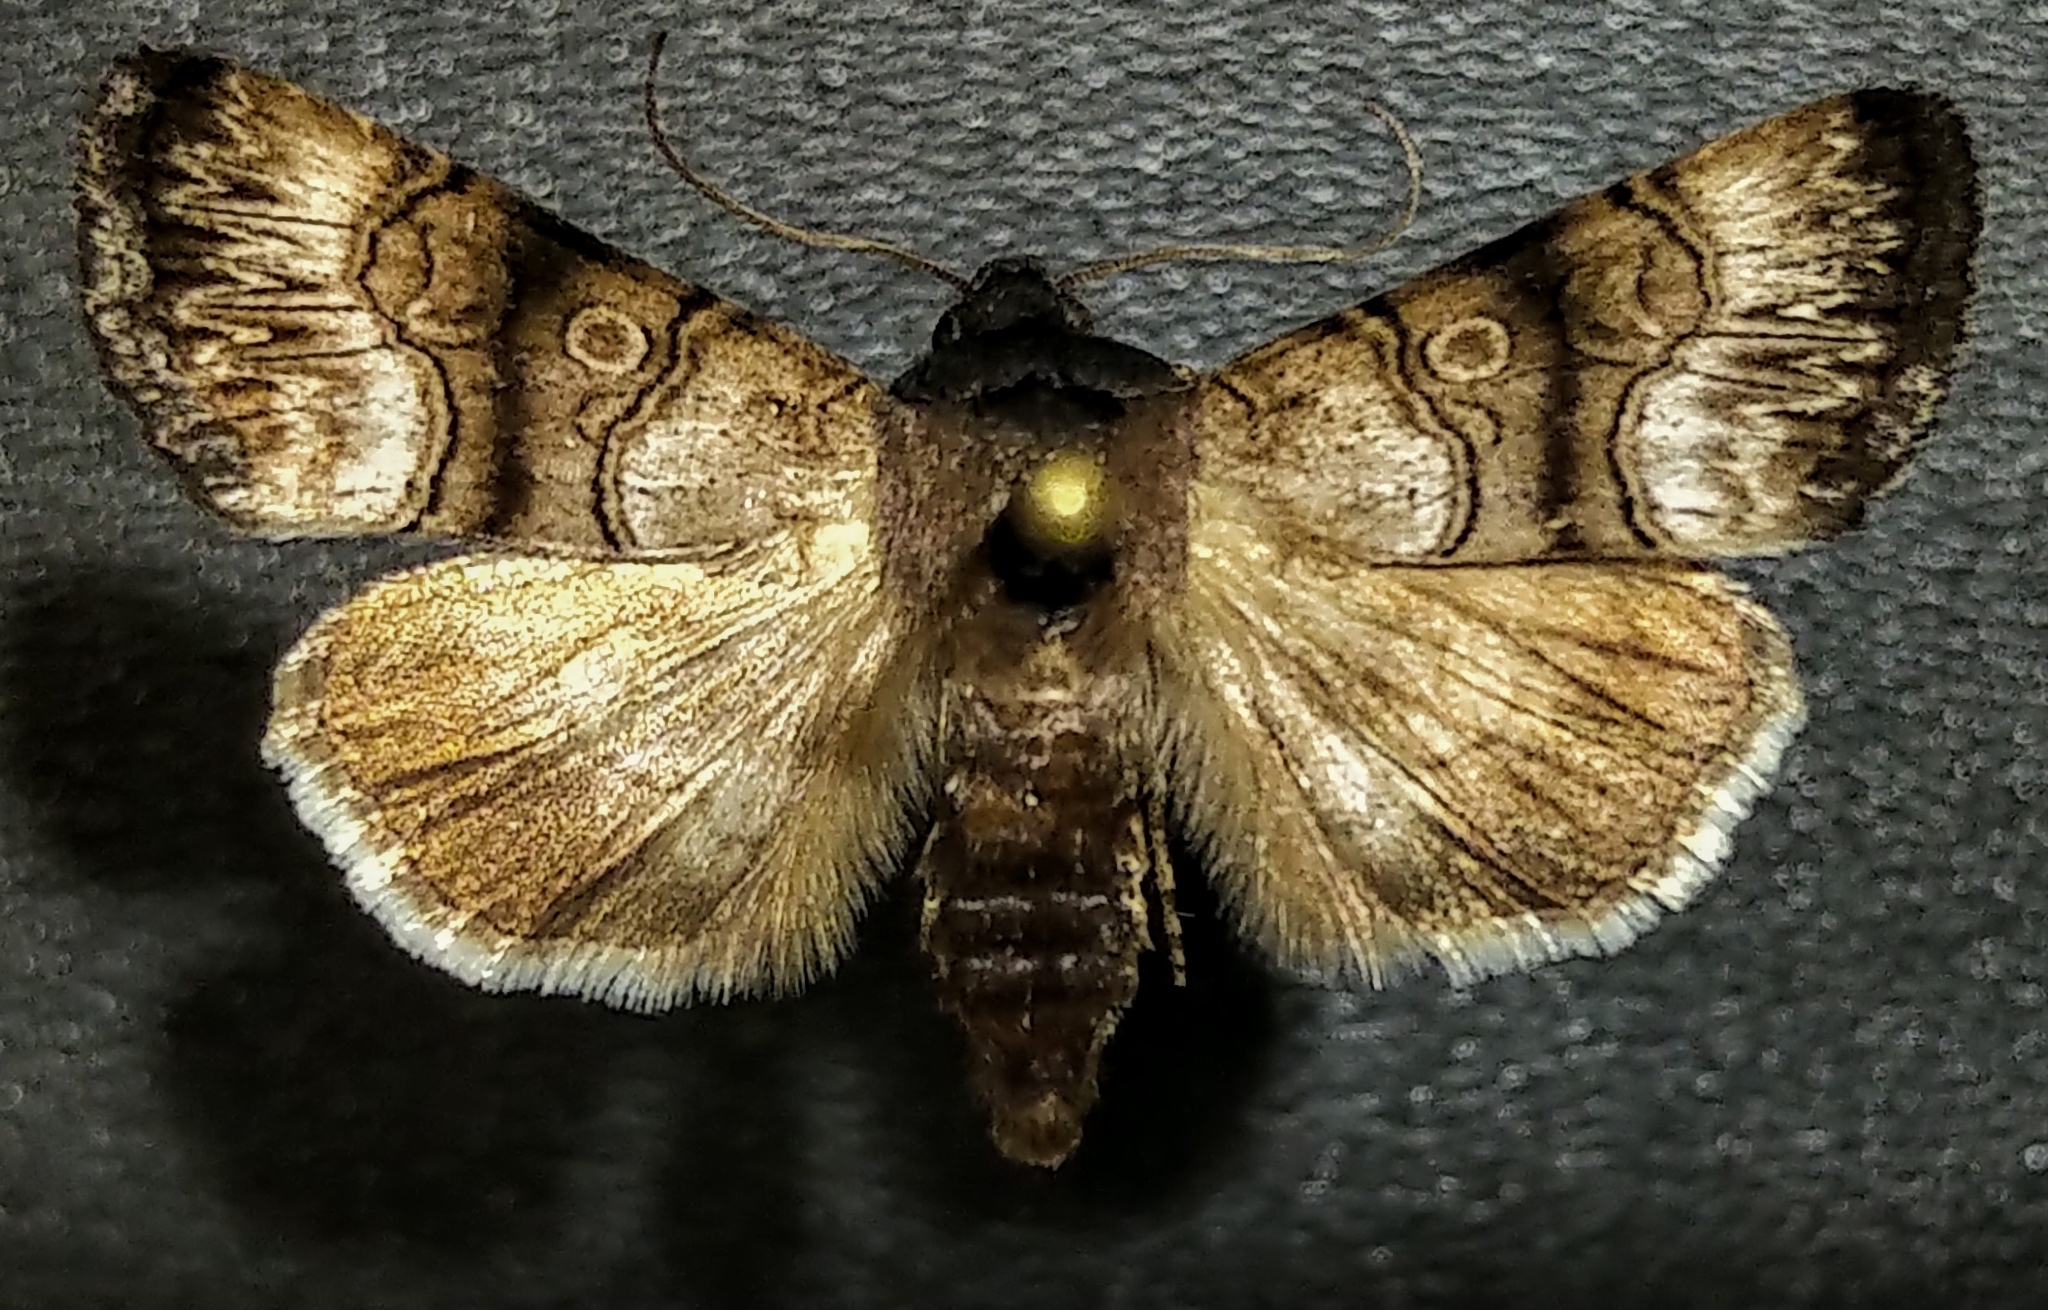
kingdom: Animalia
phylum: Arthropoda
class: Insecta
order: Lepidoptera
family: Noctuidae
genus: Sympistis
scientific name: Sympistis saundersiana
